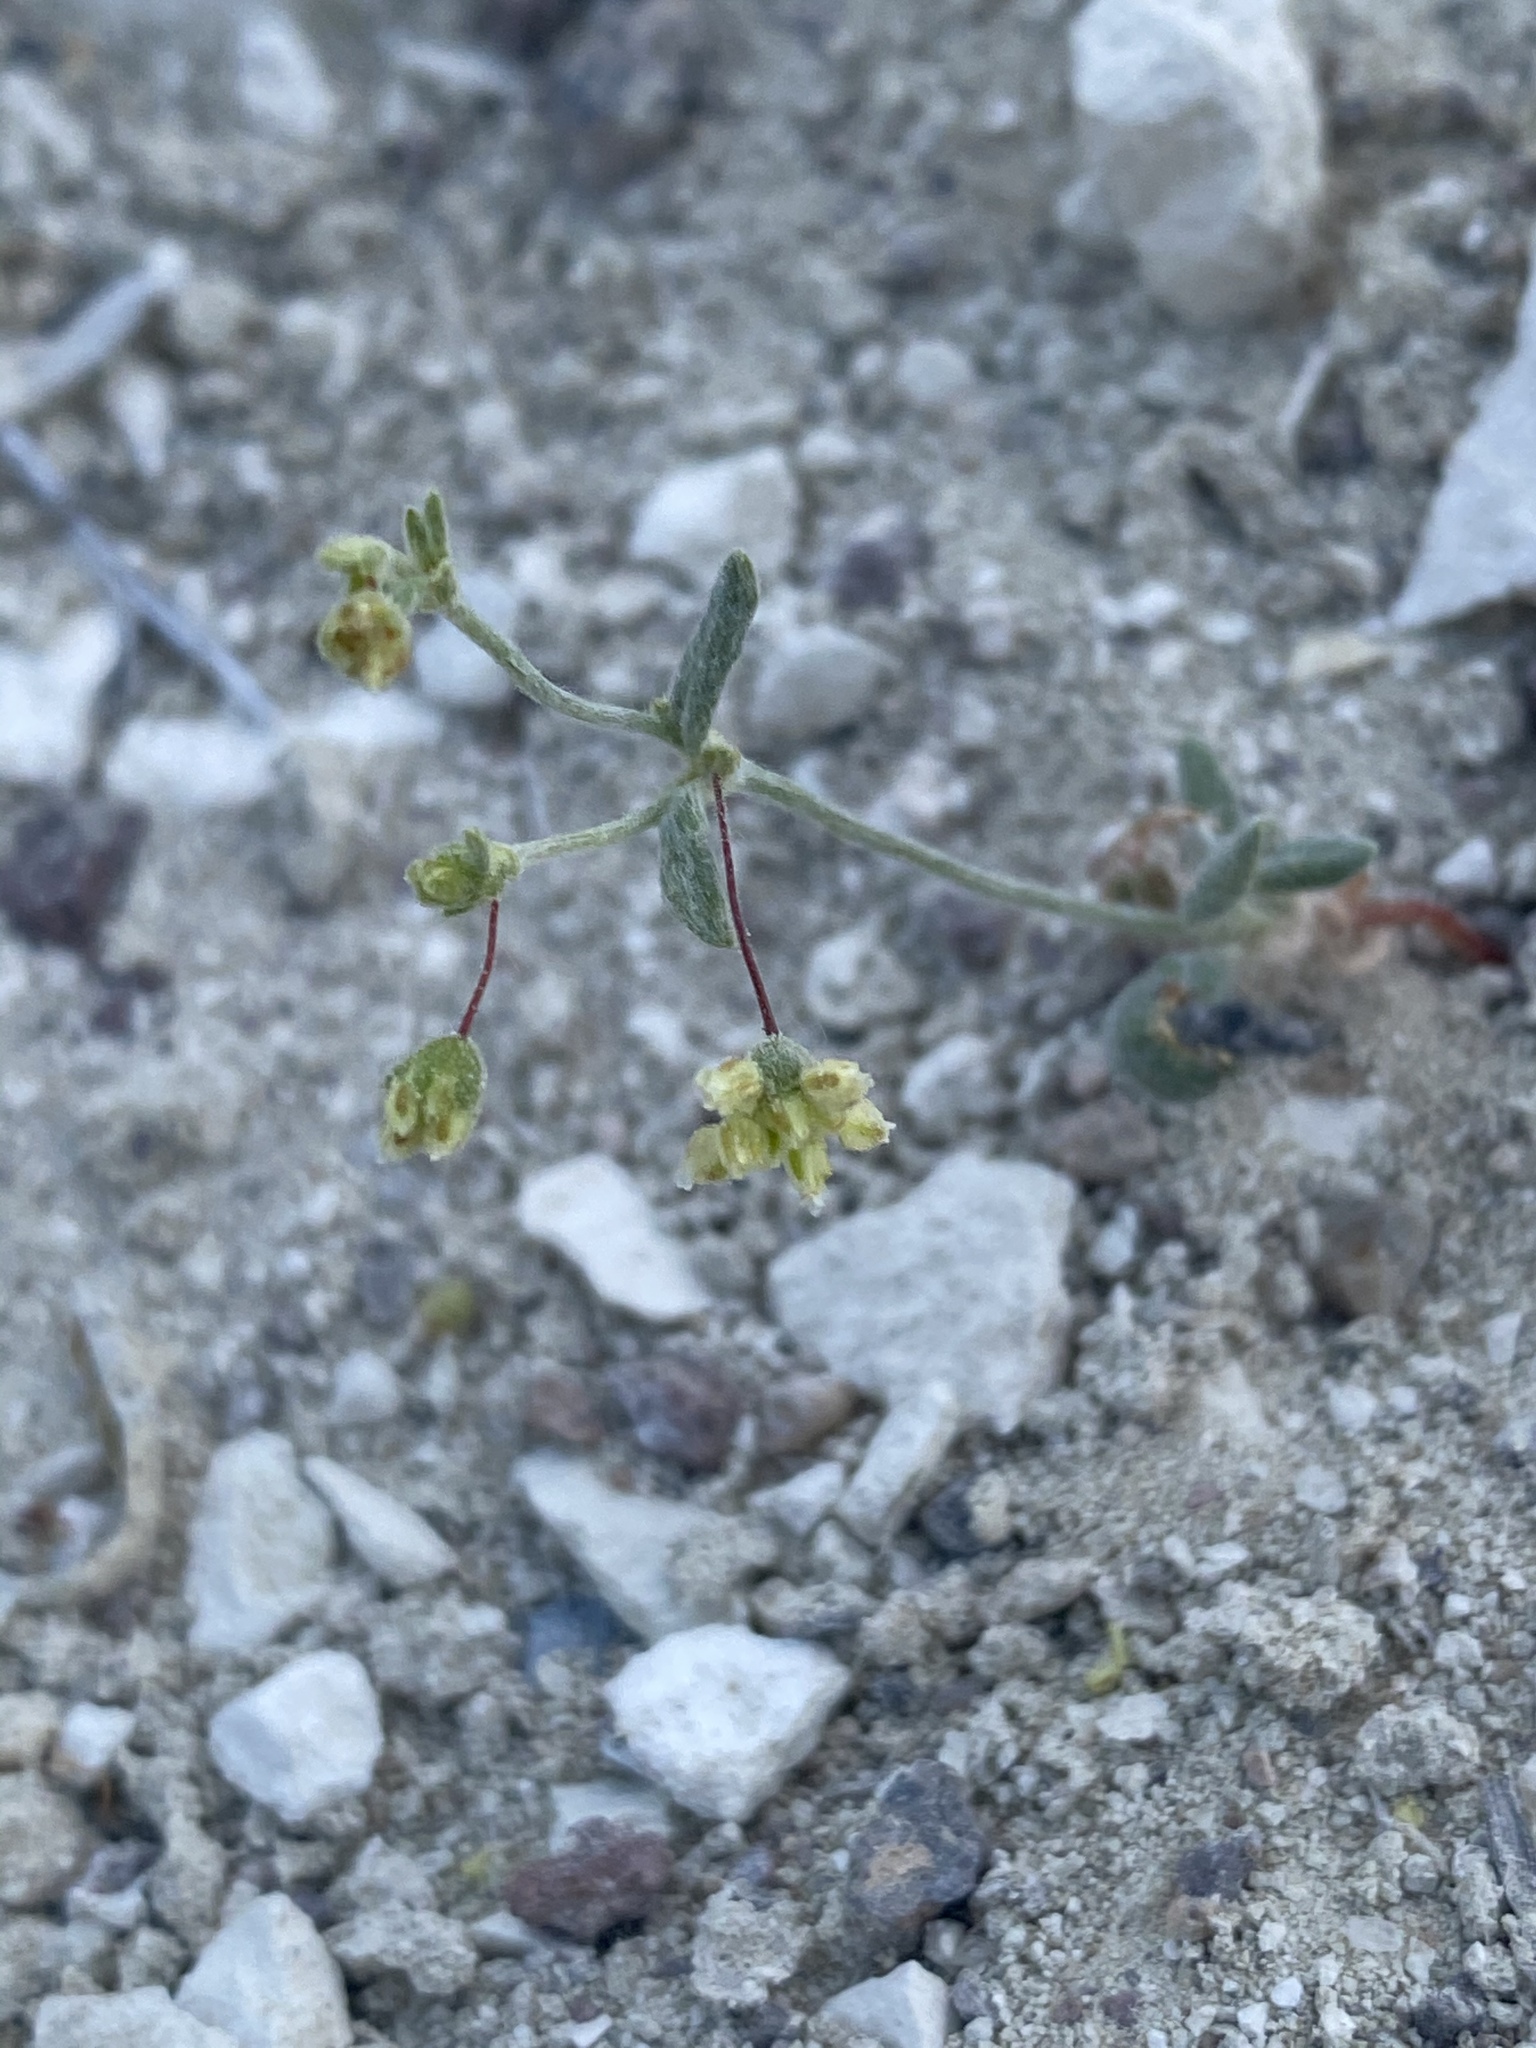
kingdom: Plantae
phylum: Tracheophyta
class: Magnoliopsida
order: Caryophyllales
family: Polygonaceae
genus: Eriogonum
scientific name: Eriogonum maculatum
